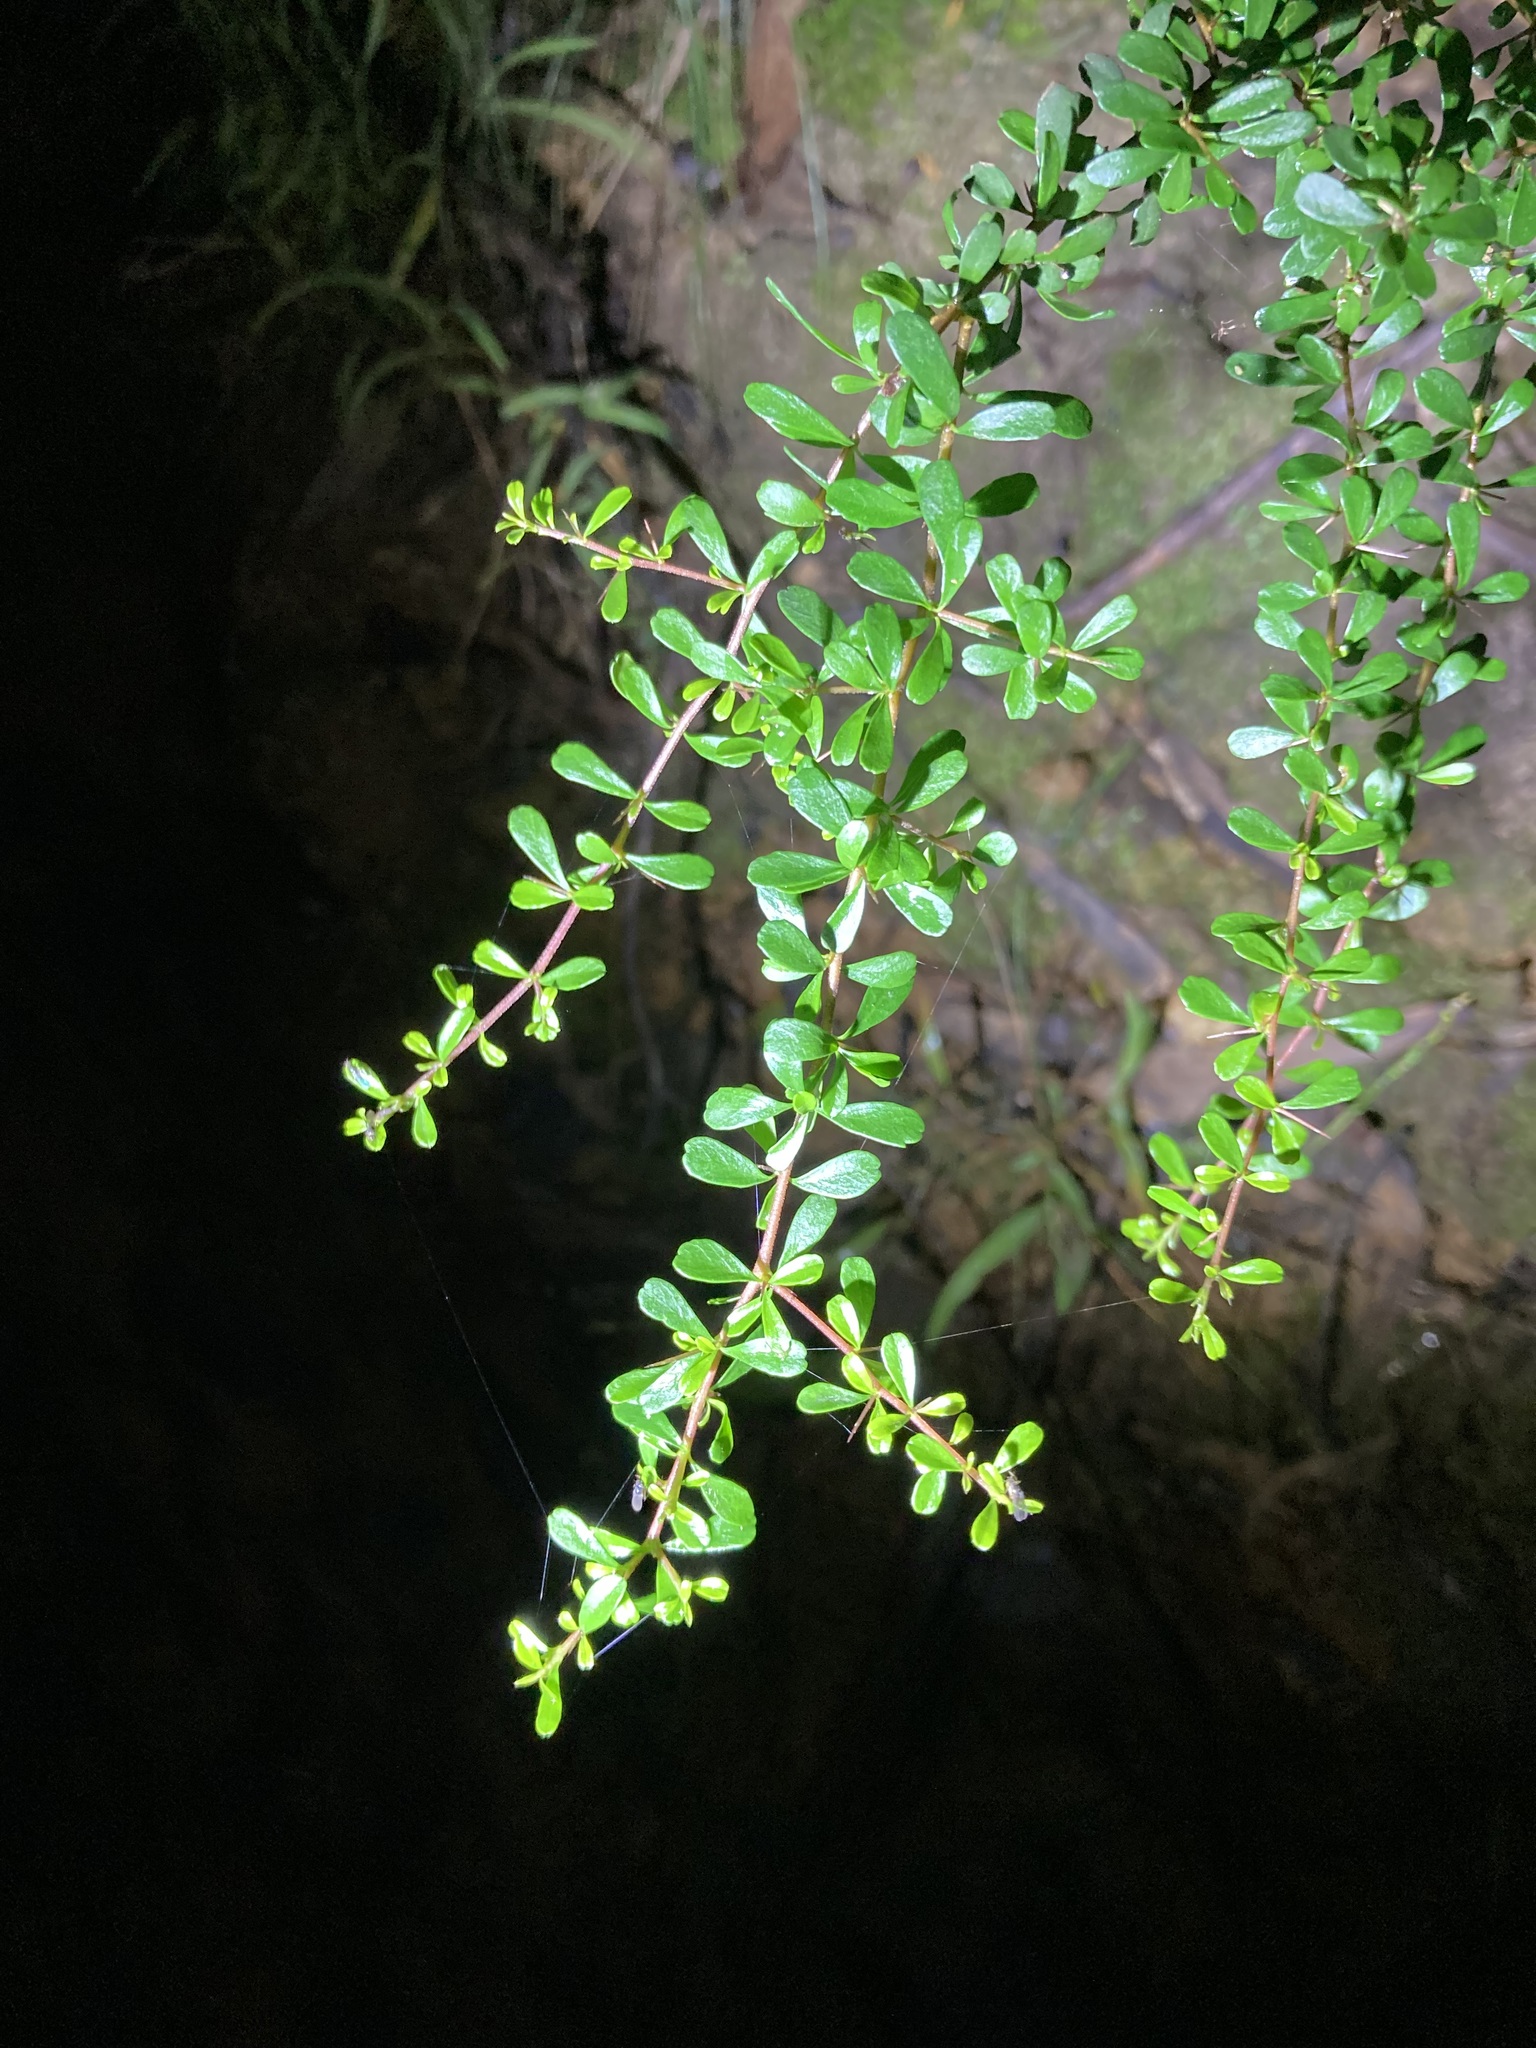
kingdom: Plantae
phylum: Tracheophyta
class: Magnoliopsida
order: Apiales
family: Pittosporaceae
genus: Bursaria
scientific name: Bursaria spinosa
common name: Australian blackthorn
